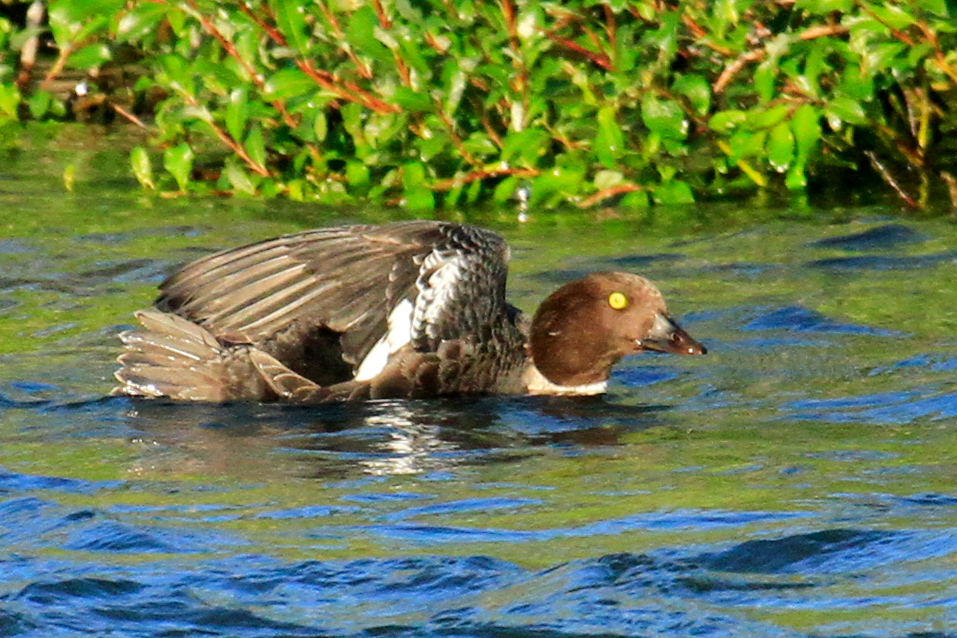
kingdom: Animalia
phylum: Chordata
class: Aves
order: Anseriformes
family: Anatidae
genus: Bucephala
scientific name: Bucephala islandica
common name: Barrow's goldeneye
